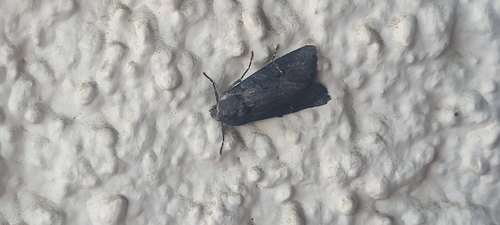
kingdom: Animalia
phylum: Arthropoda
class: Insecta
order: Lepidoptera
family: Noctuidae
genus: Aporophyla
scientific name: Aporophyla nigra
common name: Black rustic
